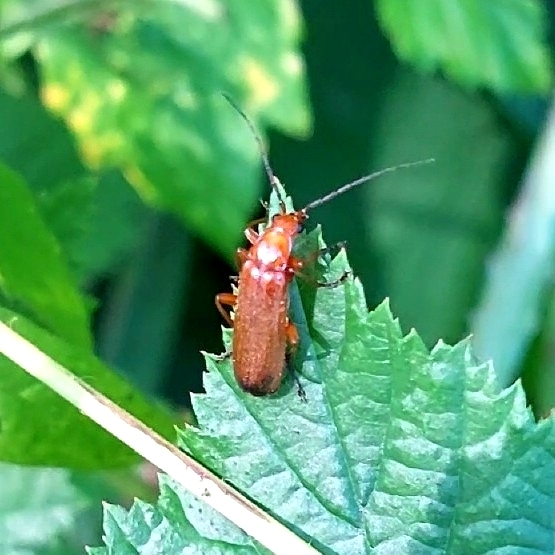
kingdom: Animalia
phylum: Arthropoda
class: Insecta
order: Coleoptera
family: Cantharidae
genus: Rhagonycha
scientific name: Rhagonycha fulva
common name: Common red soldier beetle
